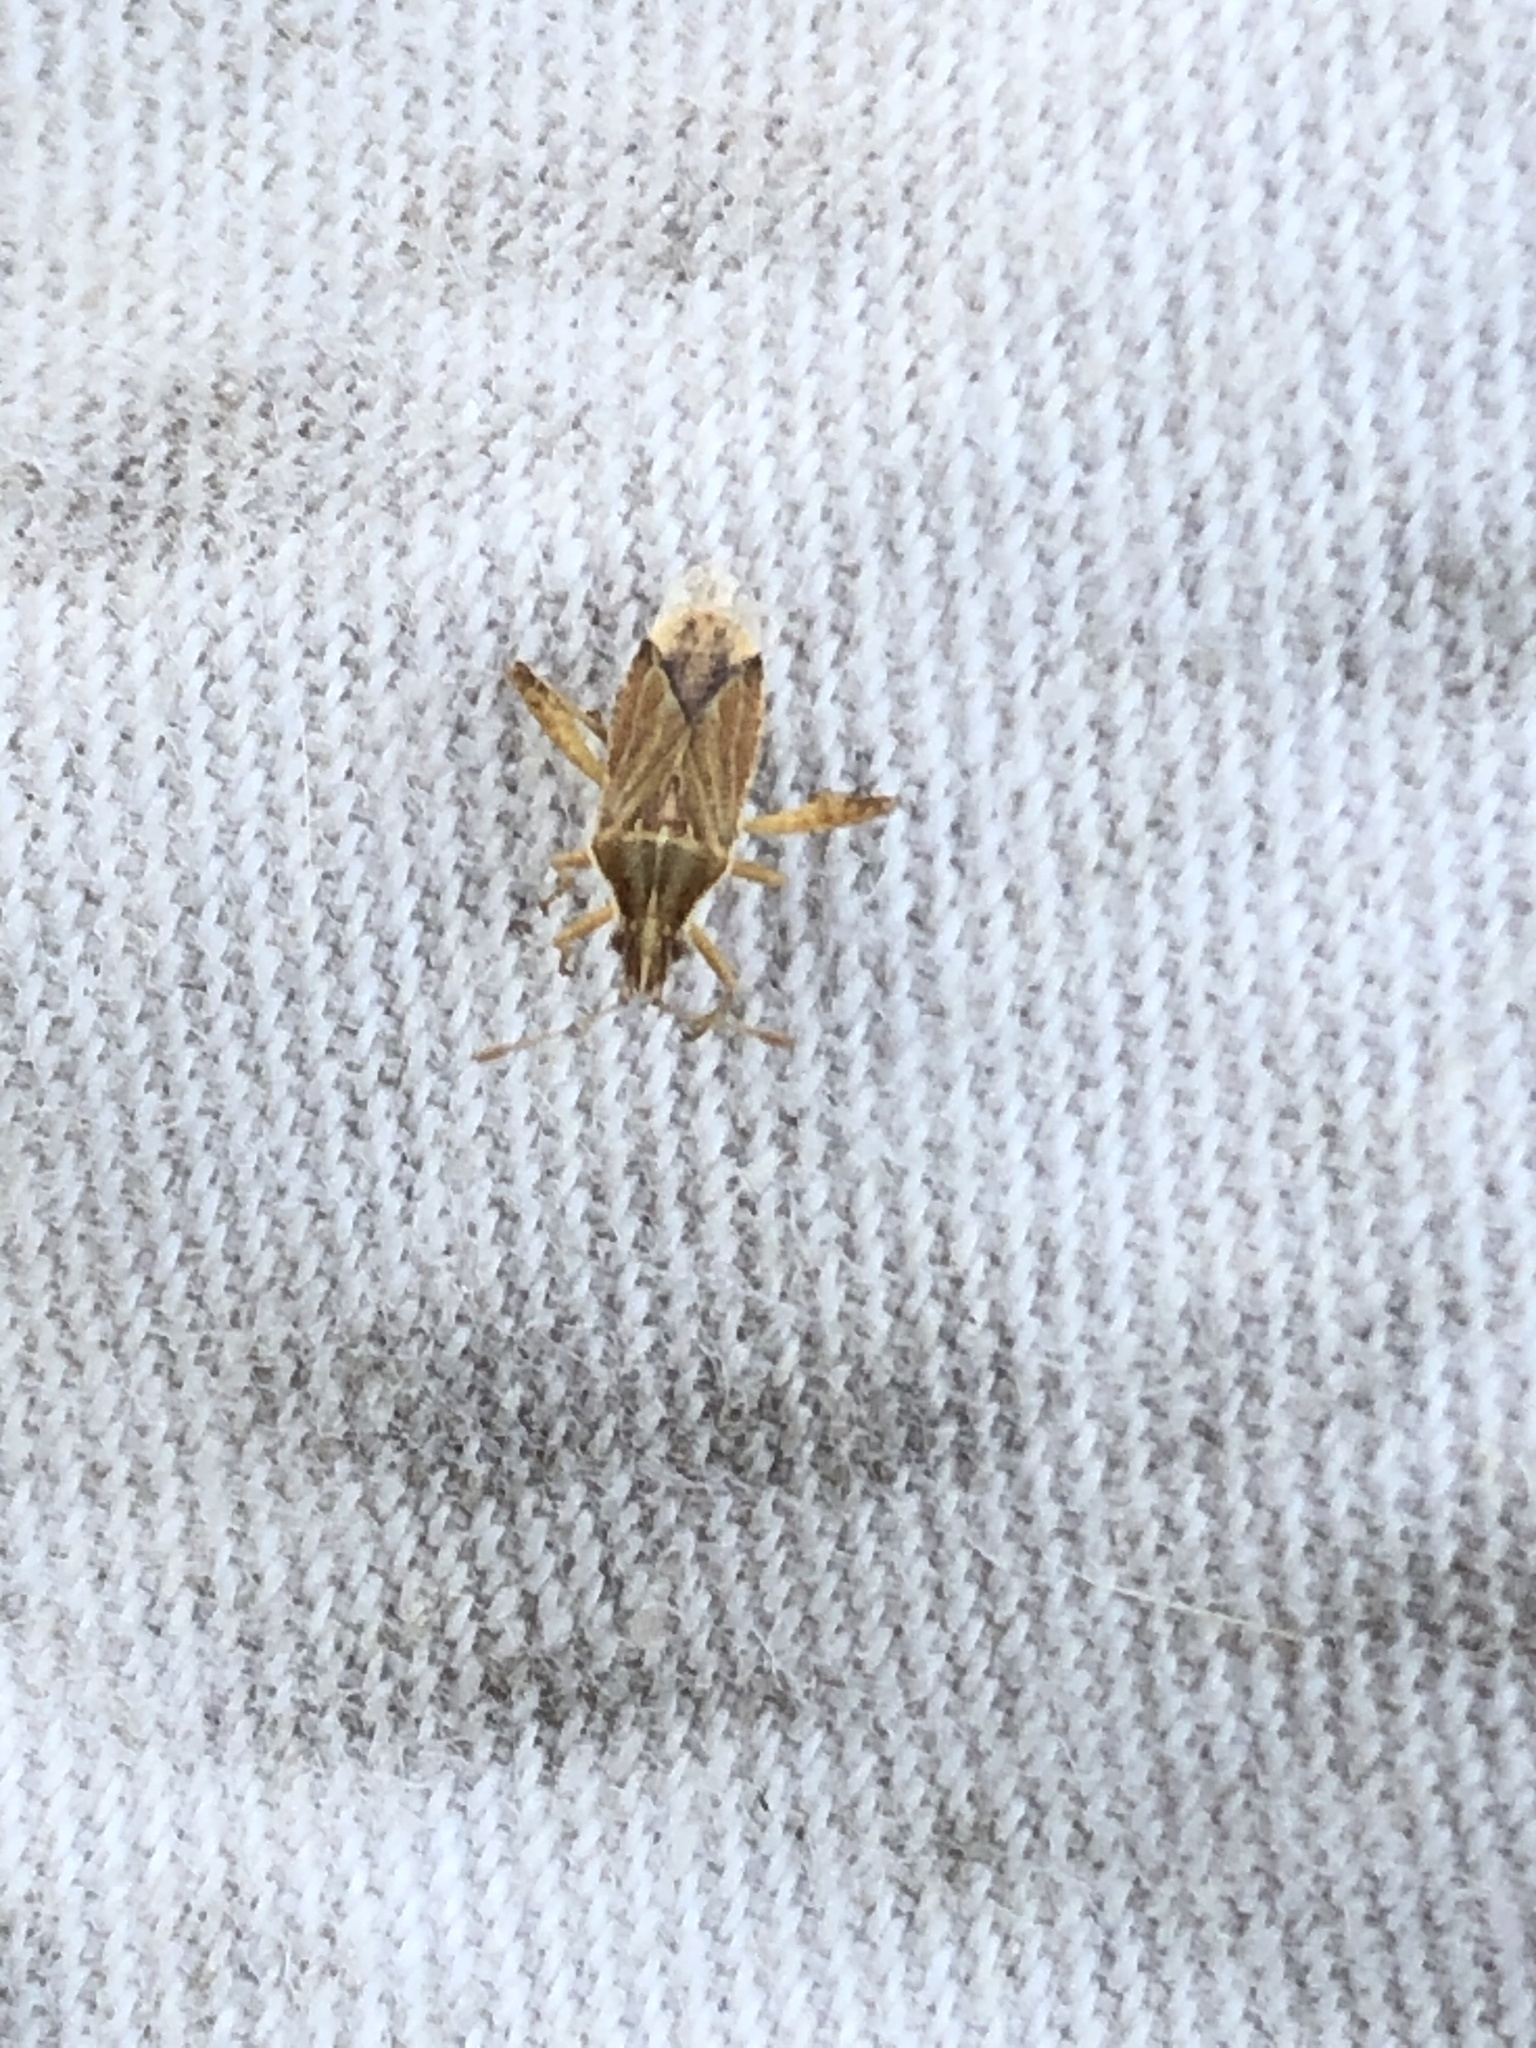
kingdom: Animalia
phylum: Arthropoda
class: Insecta
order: Hemiptera
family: Rhopalidae
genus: Harmostes
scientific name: Harmostes dorsalis
